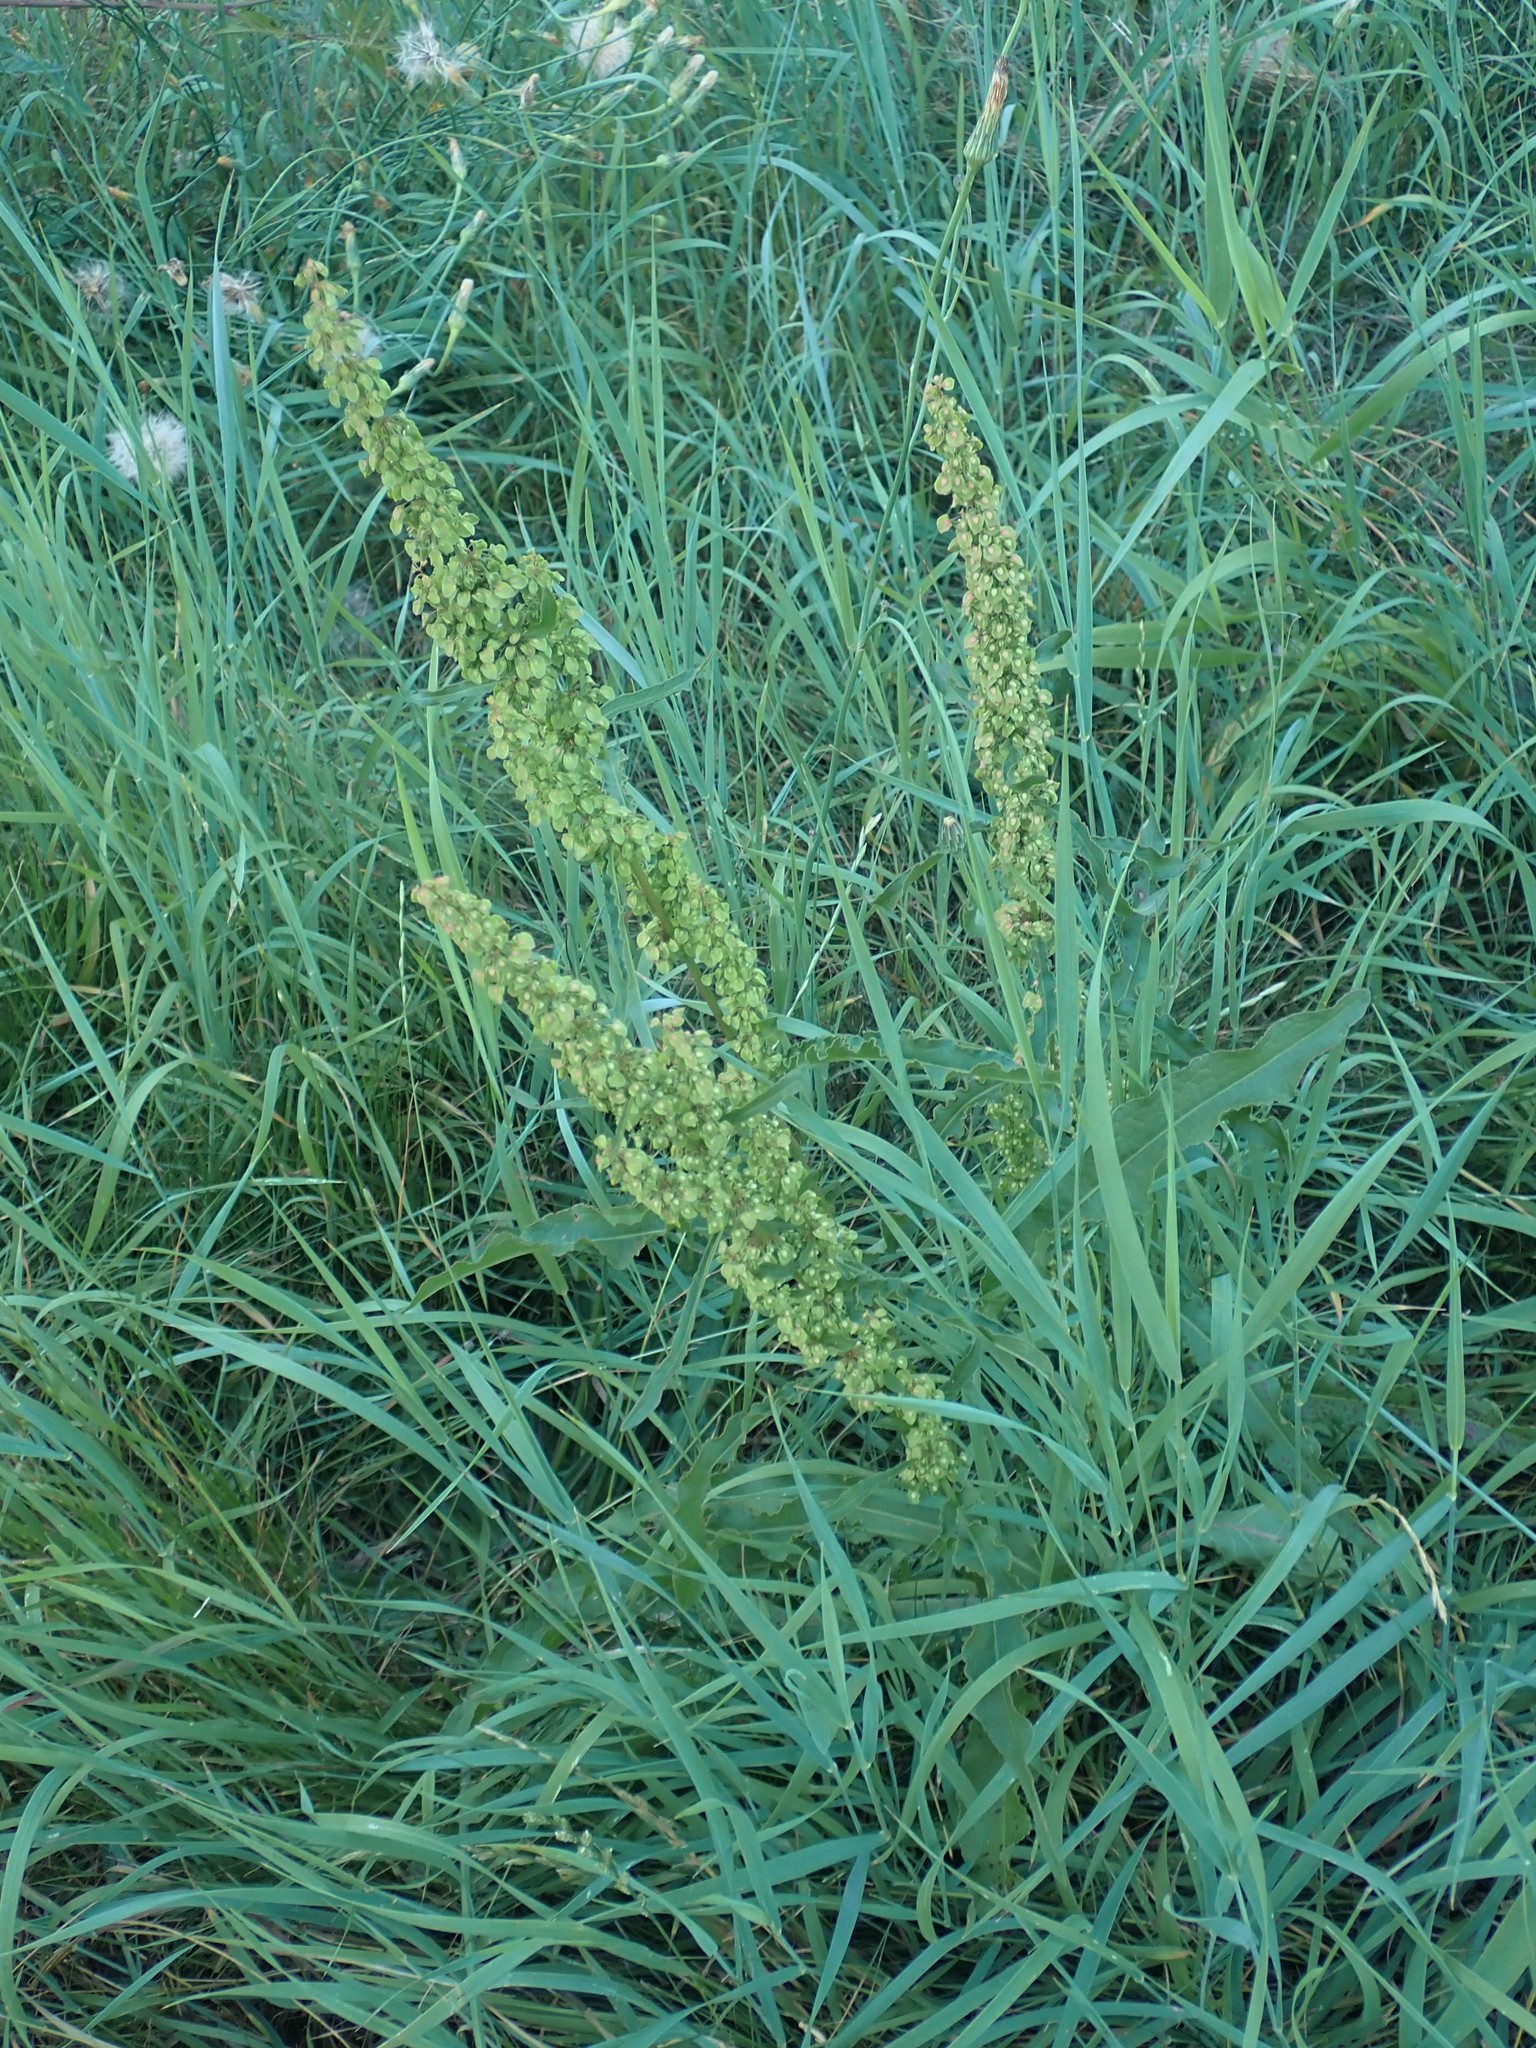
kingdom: Plantae
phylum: Tracheophyta
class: Magnoliopsida
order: Caryophyllales
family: Polygonaceae
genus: Rumex
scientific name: Rumex crispus
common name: Curled dock
